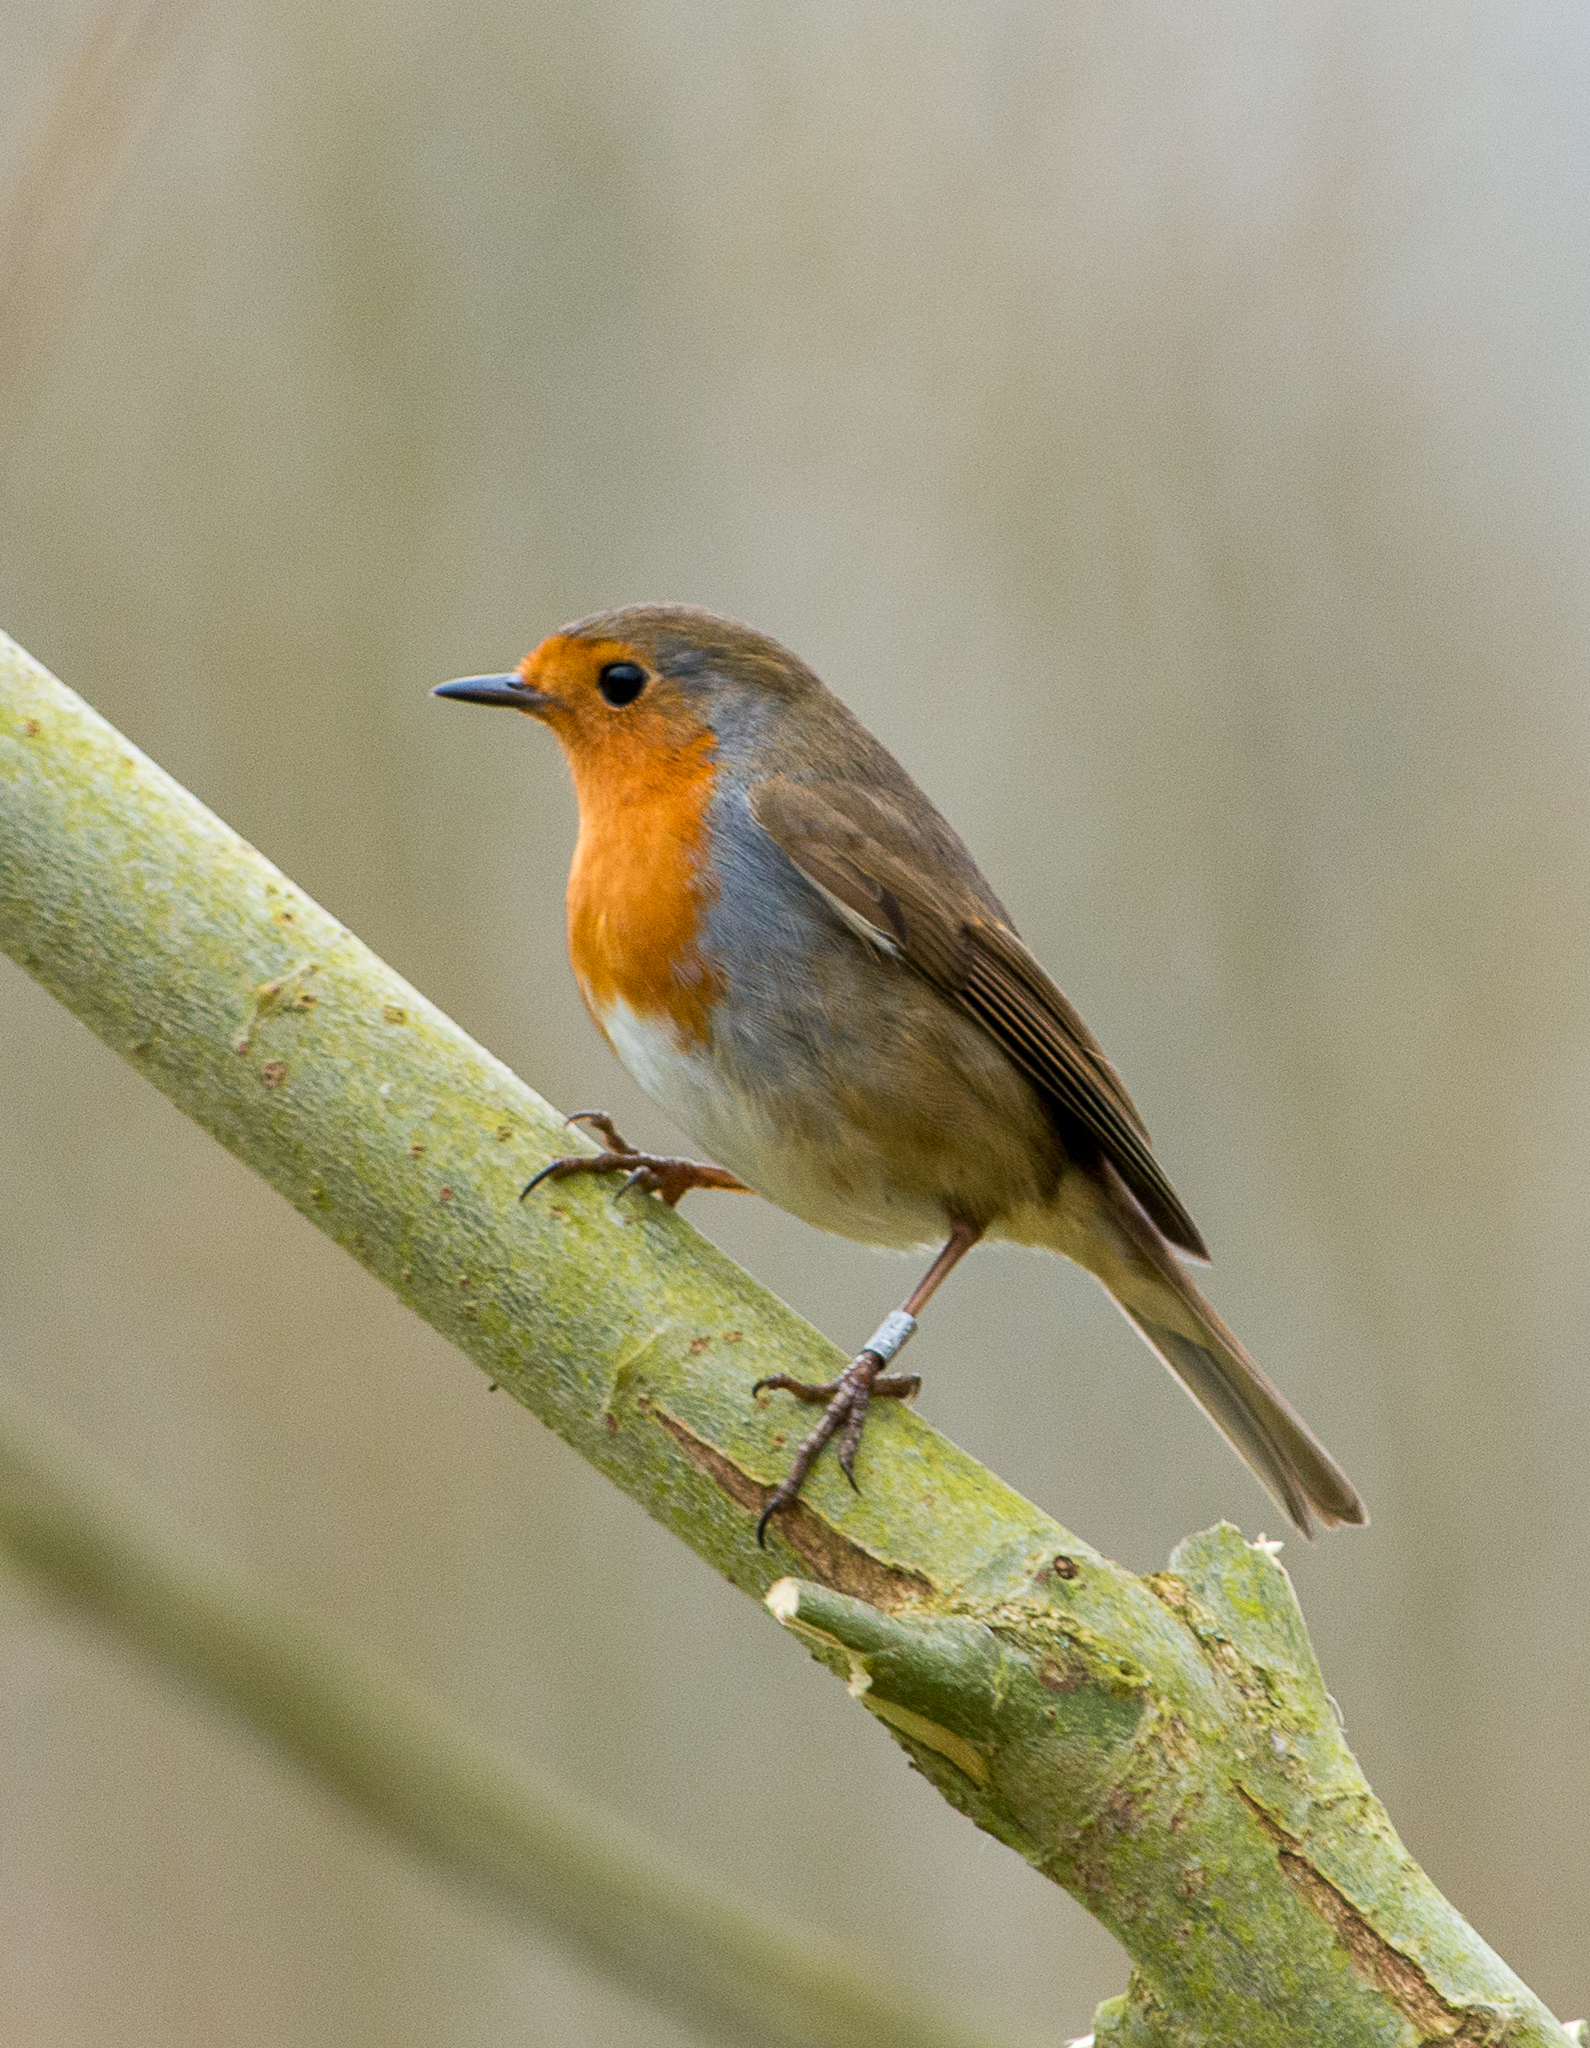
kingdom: Animalia
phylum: Chordata
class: Aves
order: Passeriformes
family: Muscicapidae
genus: Erithacus
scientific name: Erithacus rubecula
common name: European robin
